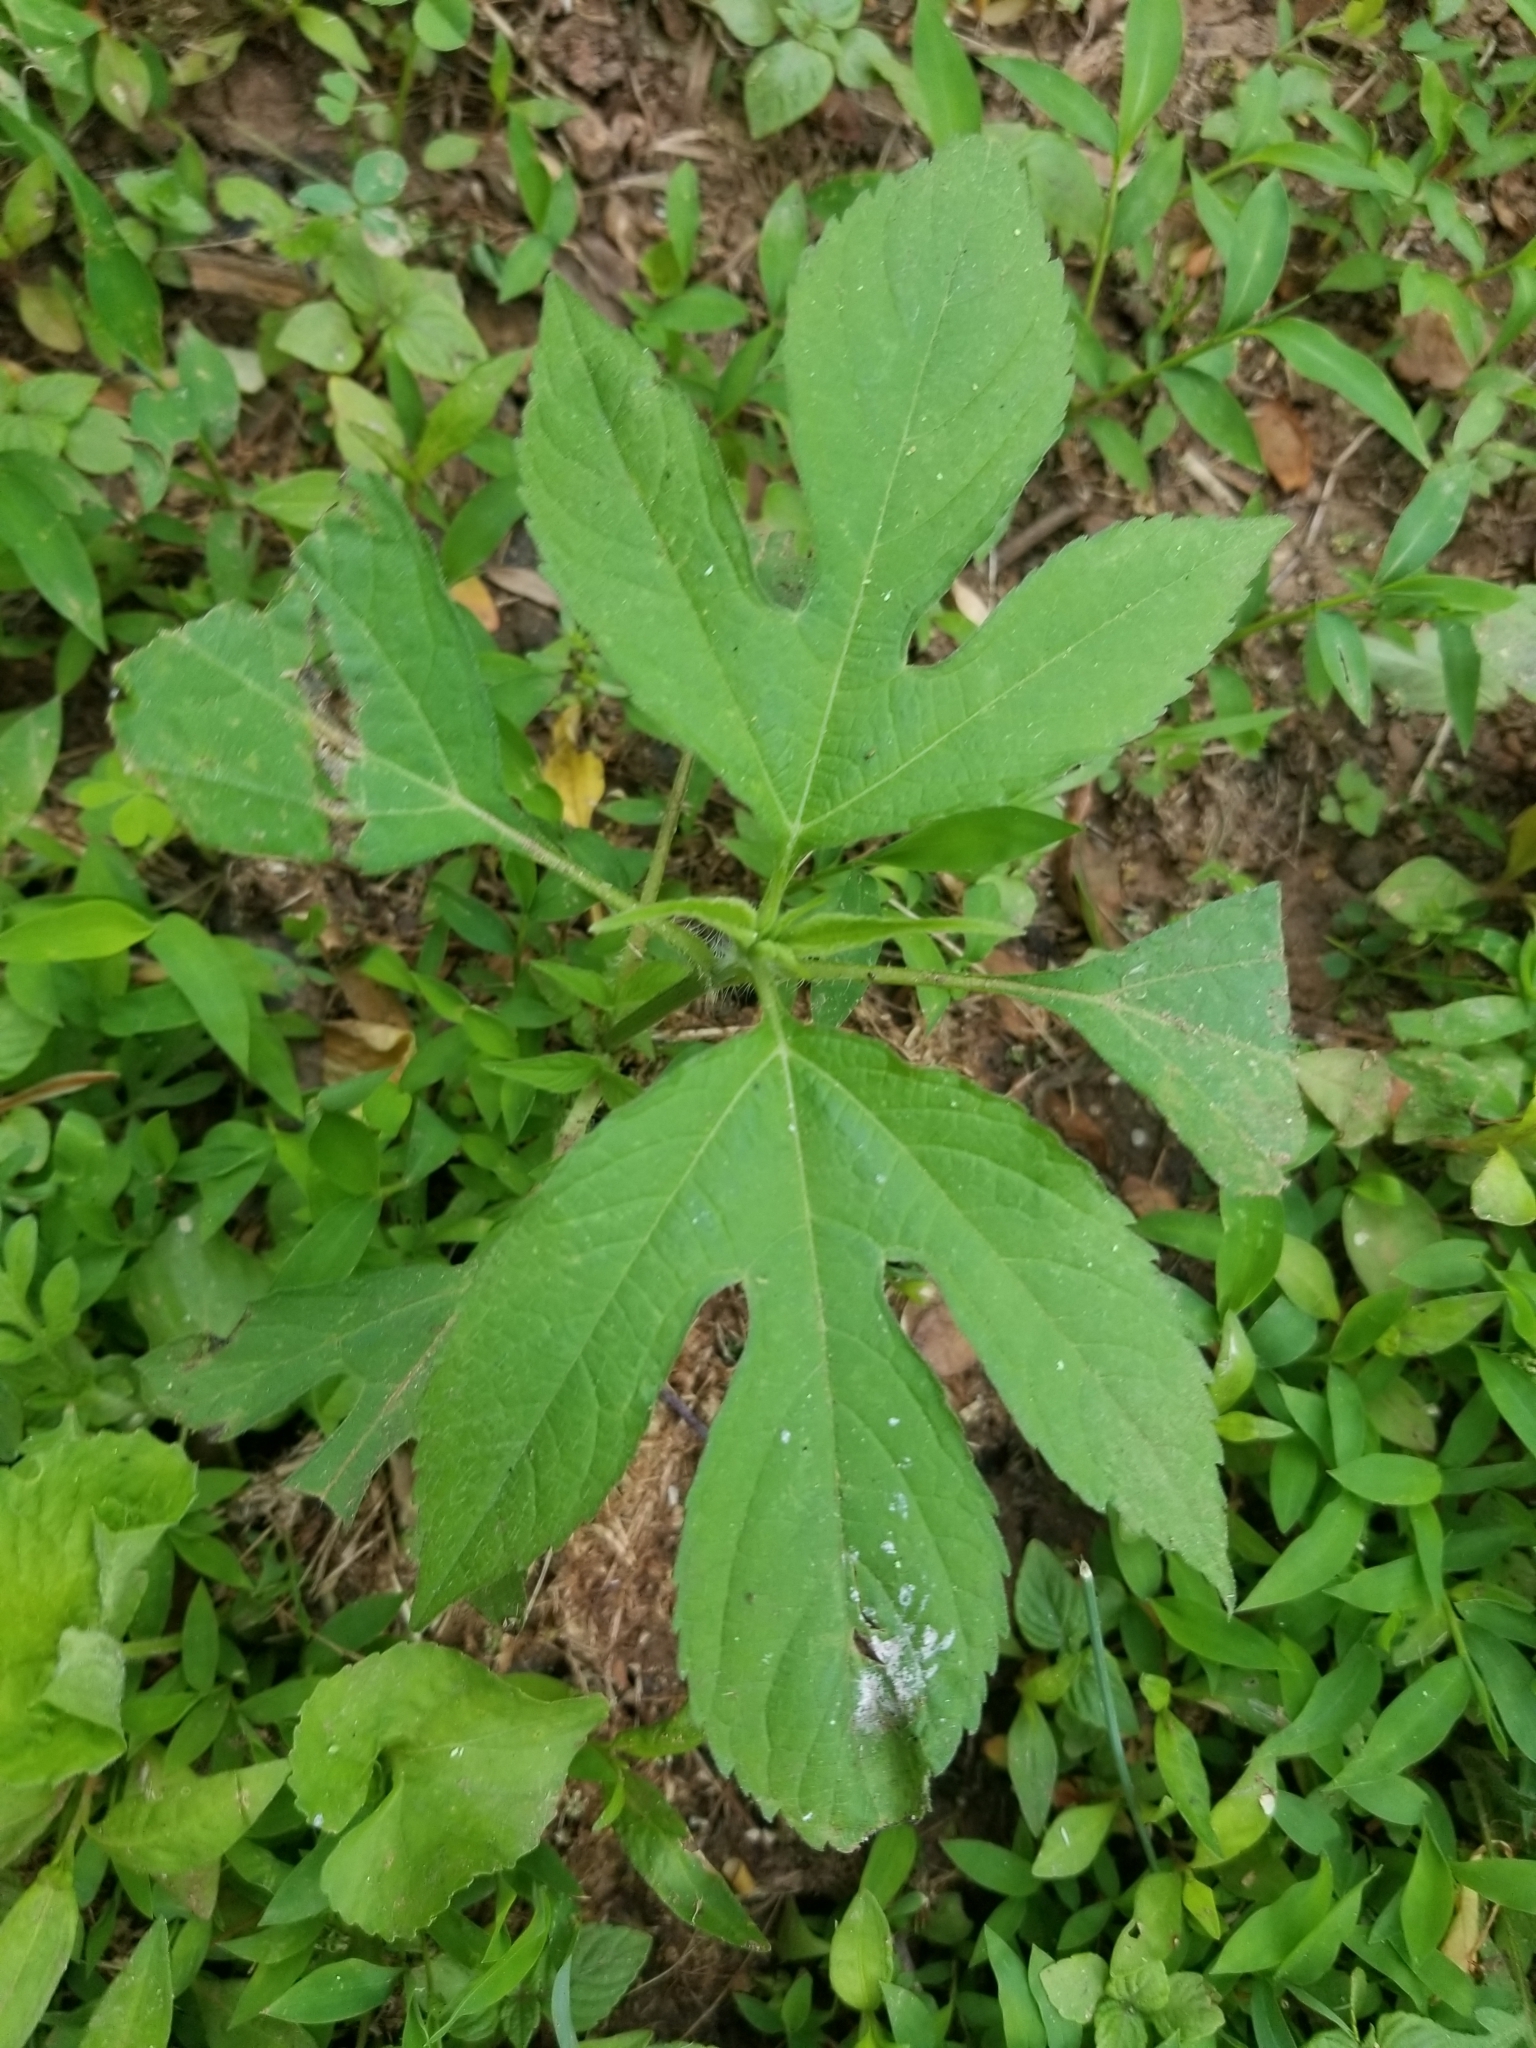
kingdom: Plantae
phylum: Tracheophyta
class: Magnoliopsida
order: Asterales
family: Asteraceae
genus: Ambrosia
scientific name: Ambrosia trifida
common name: Giant ragweed
